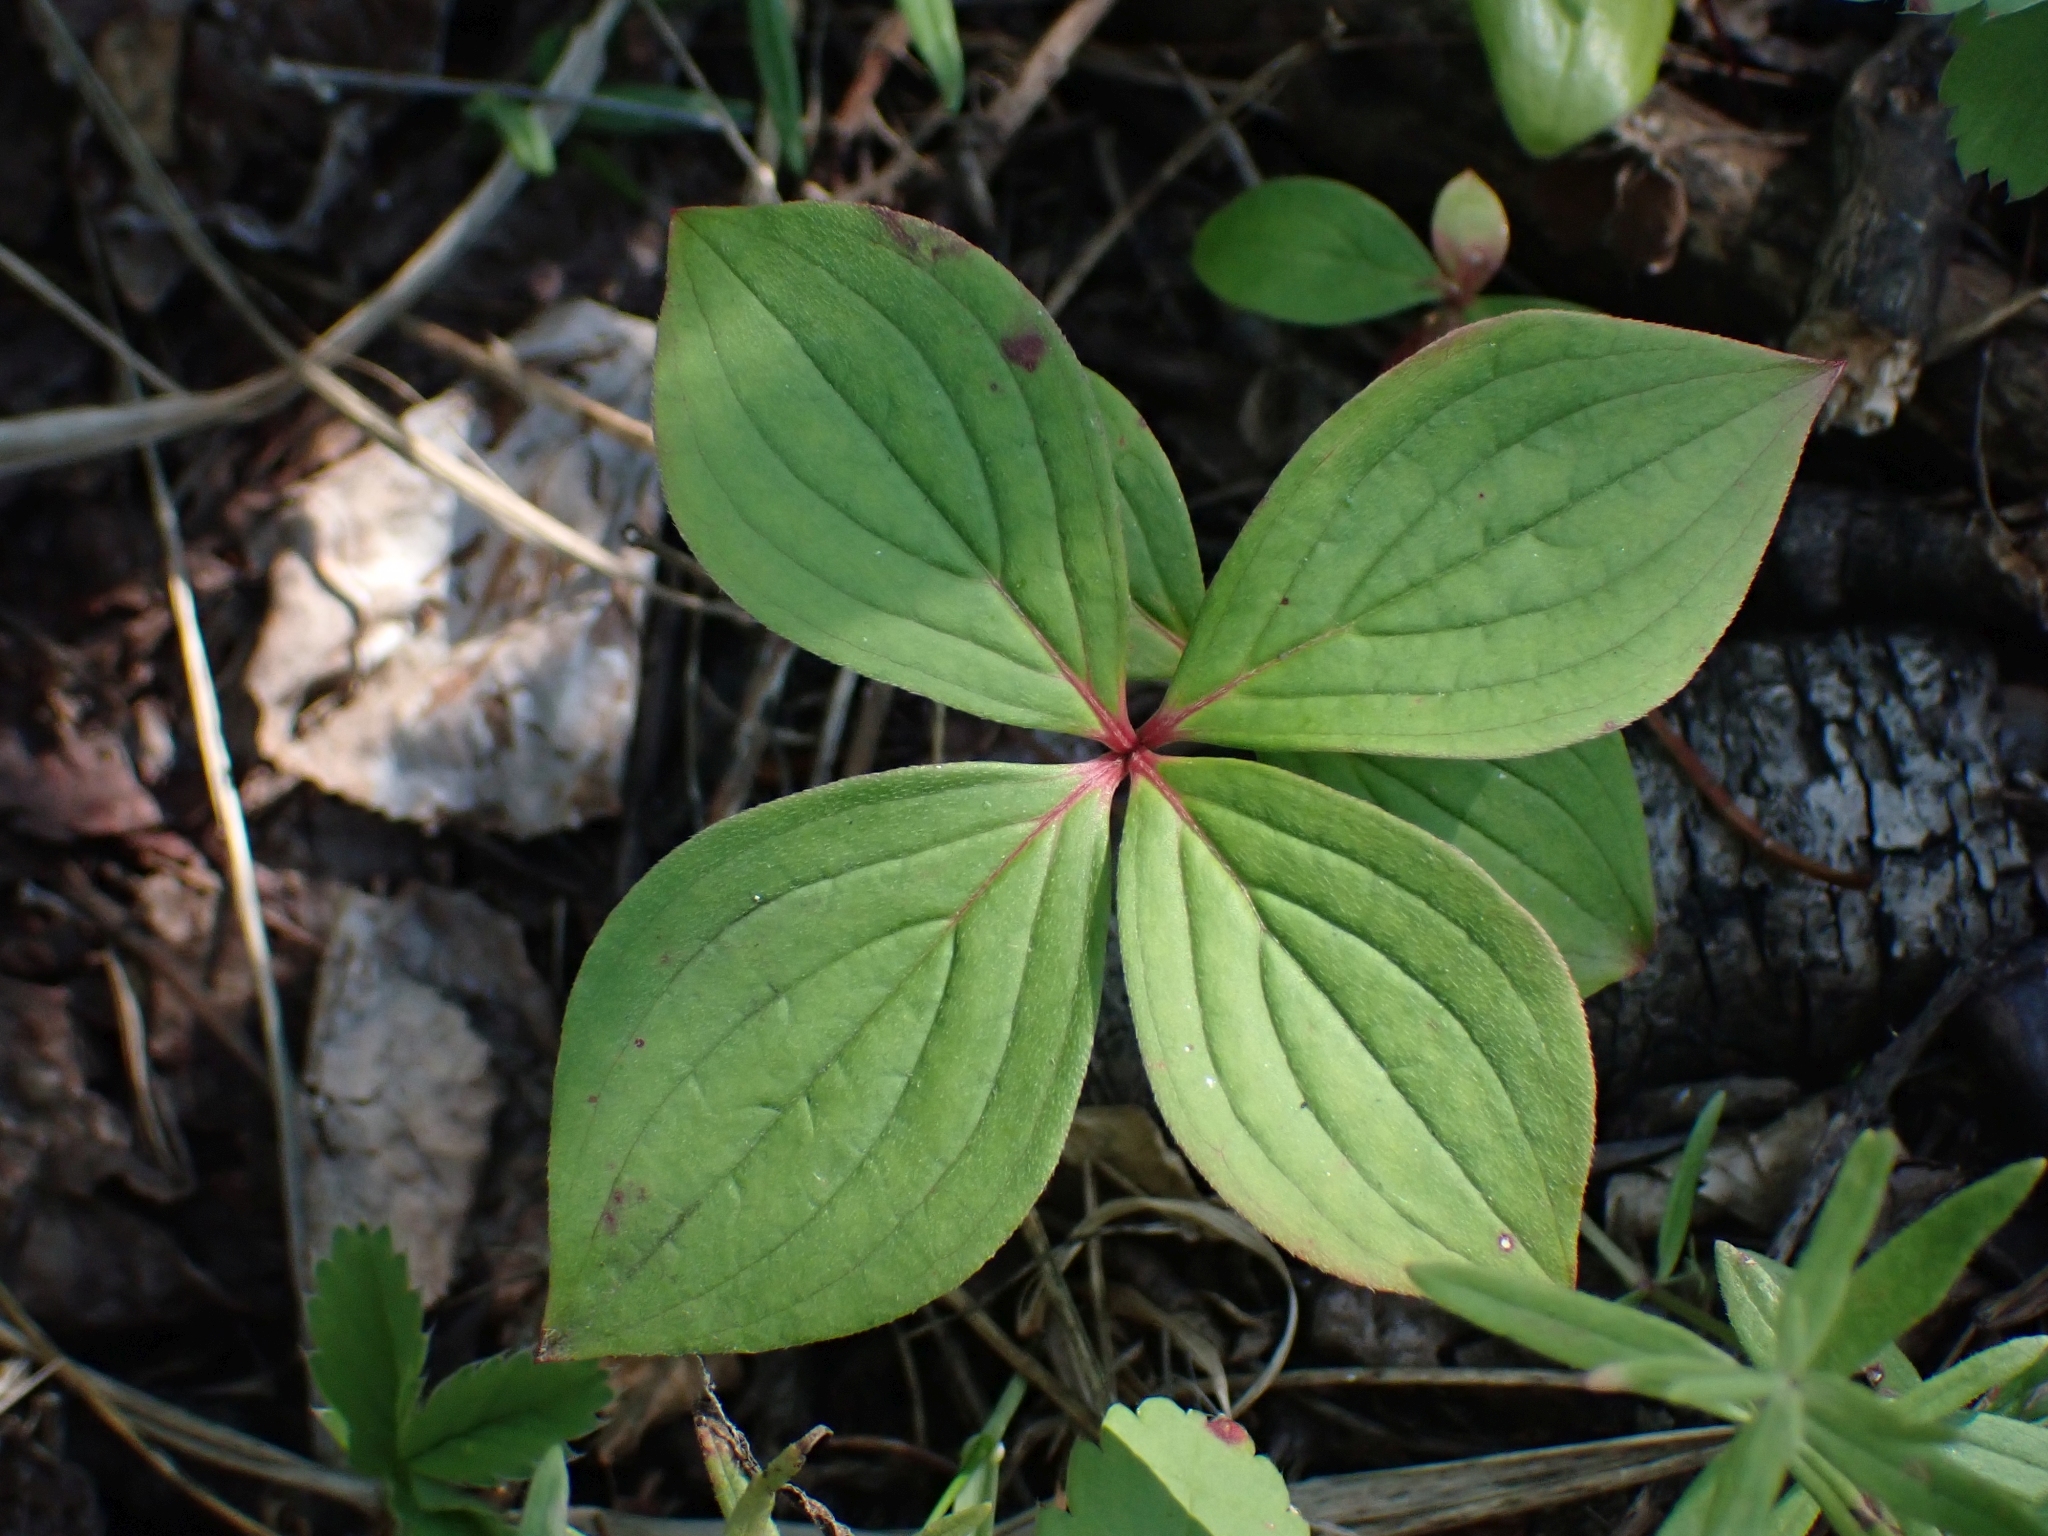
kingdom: Plantae
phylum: Tracheophyta
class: Magnoliopsida
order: Cornales
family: Cornaceae
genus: Cornus
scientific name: Cornus canadensis
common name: Creeping dogwood
